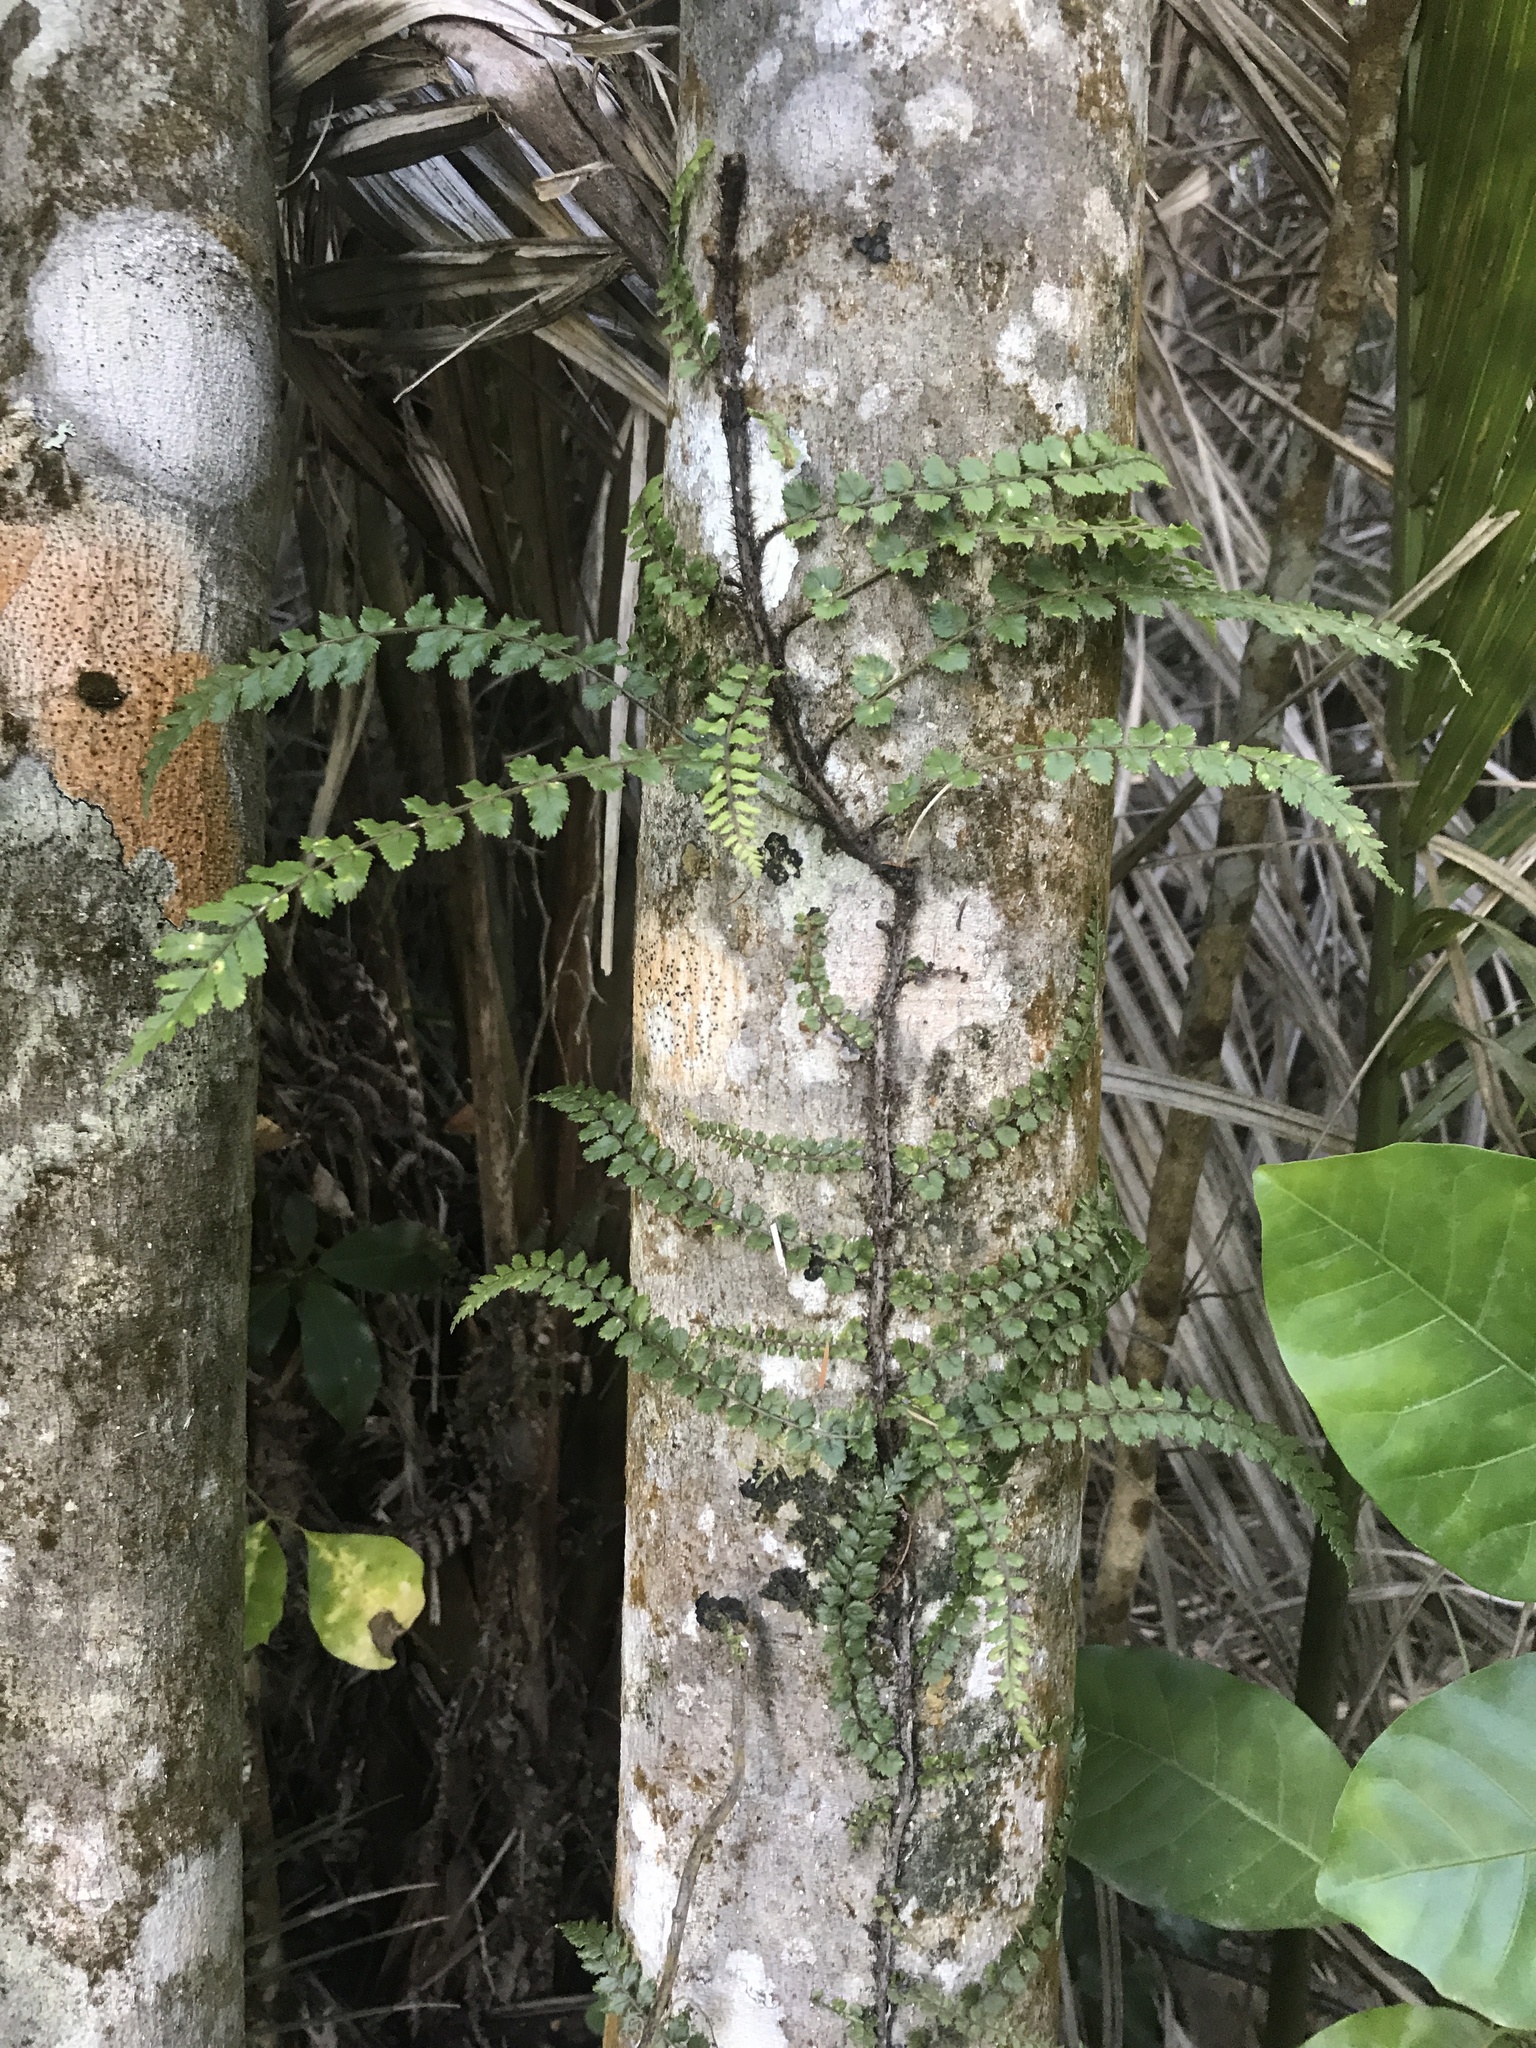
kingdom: Plantae
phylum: Tracheophyta
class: Polypodiopsida
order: Polypodiales
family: Blechnaceae
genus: Icarus
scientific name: Icarus filiformis
